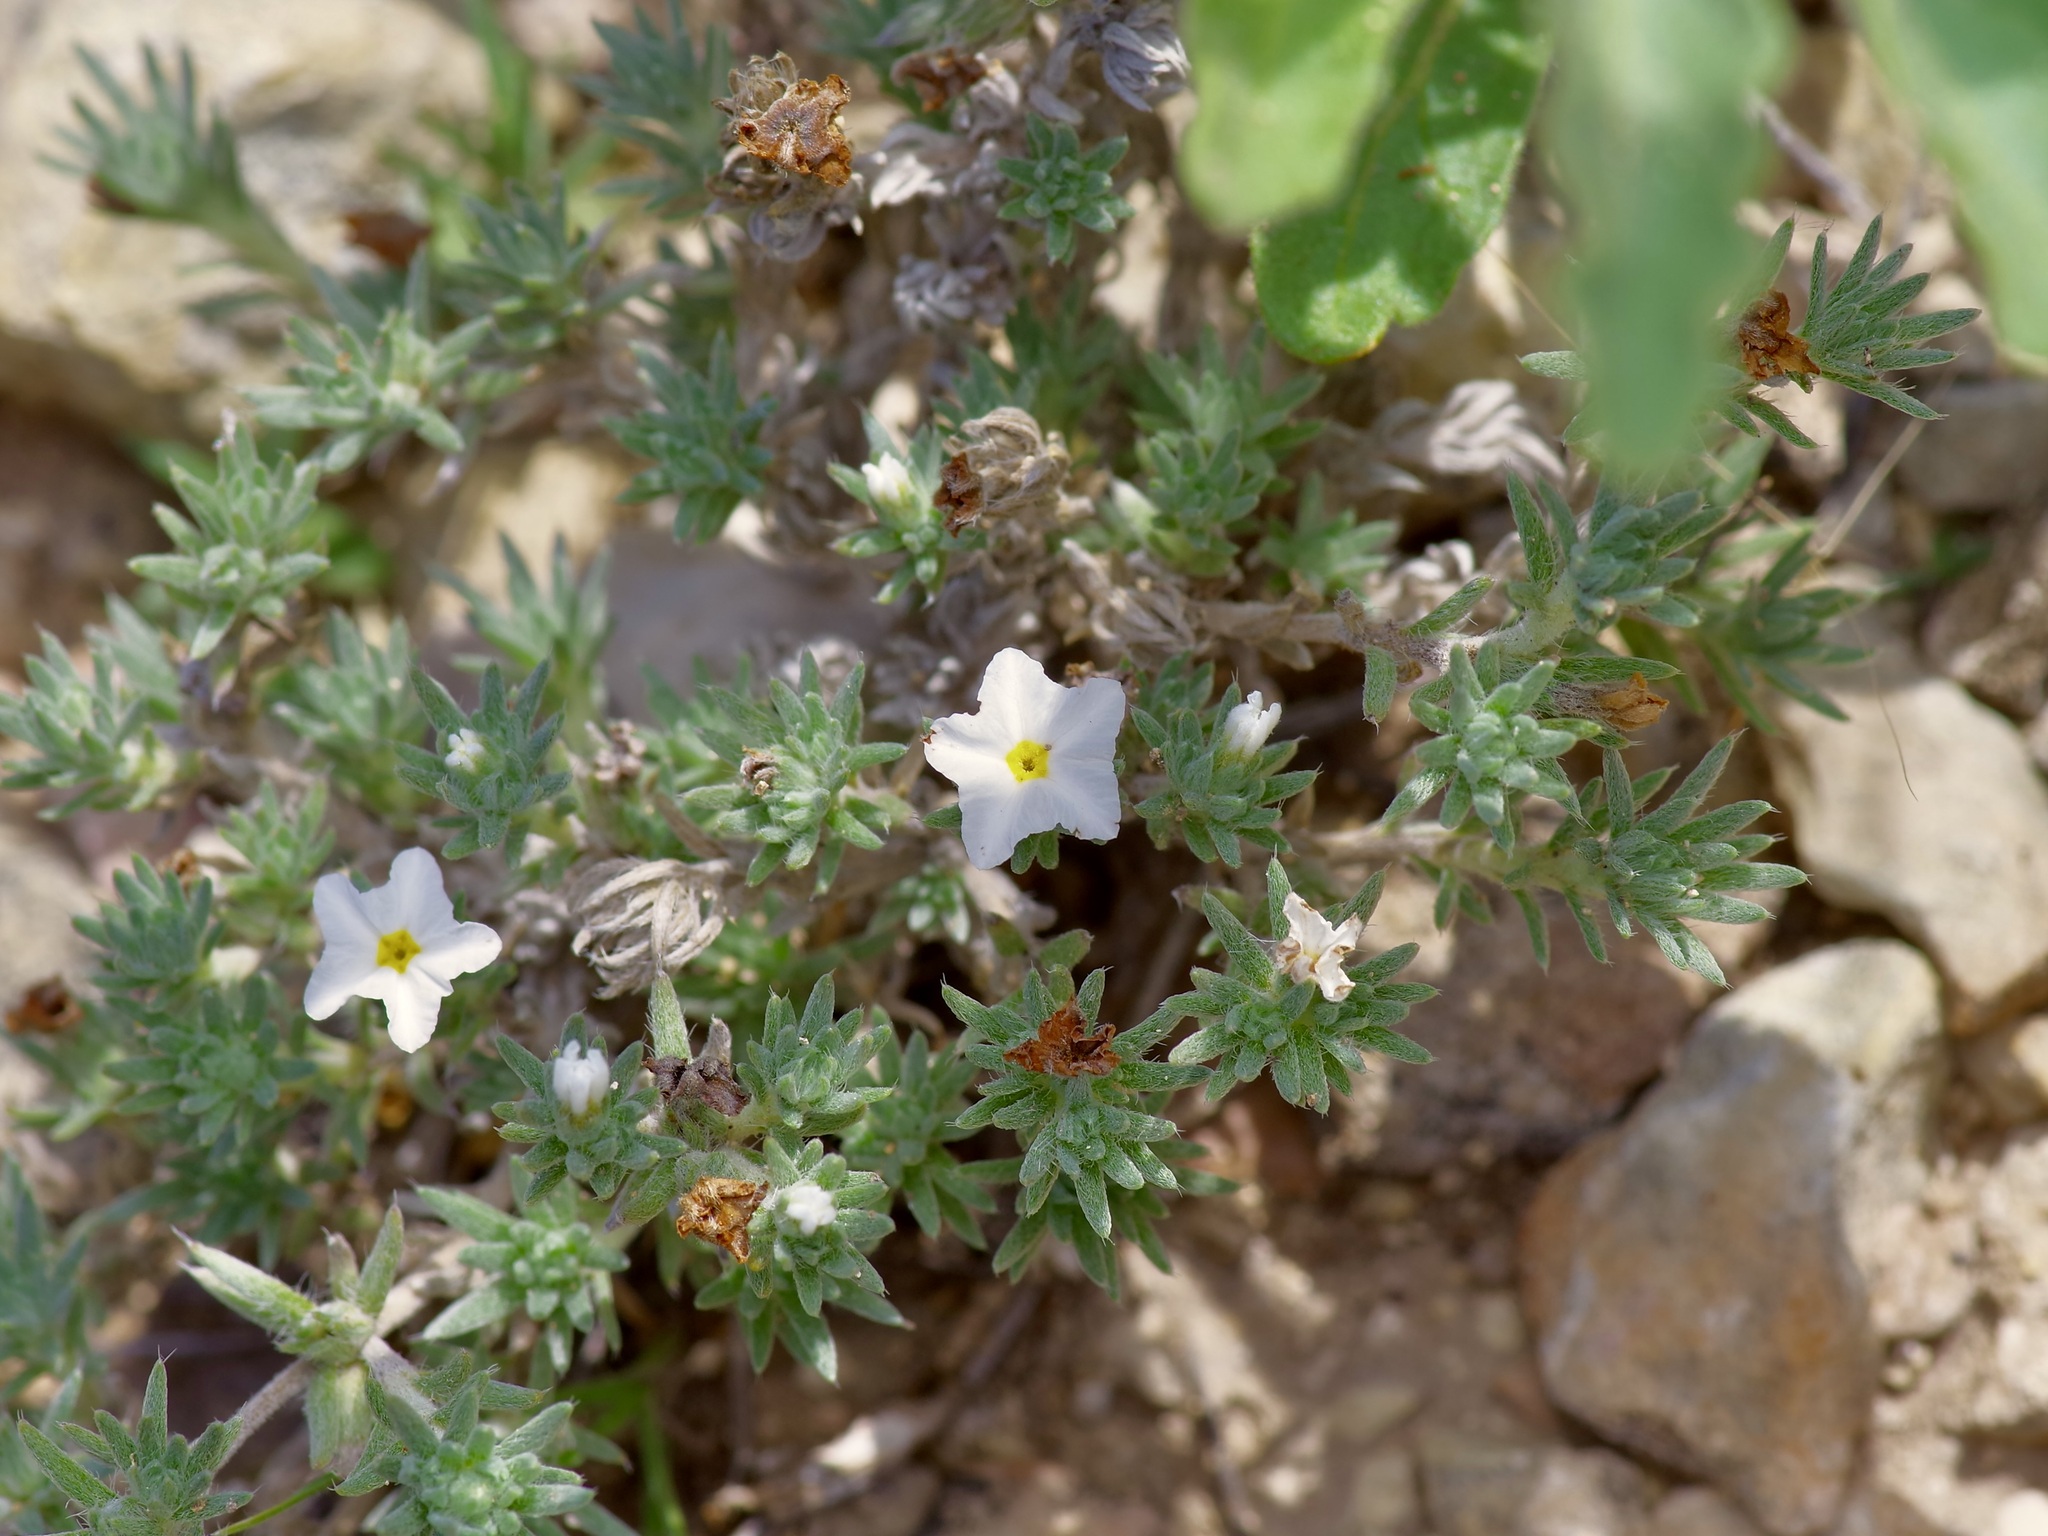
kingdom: Plantae
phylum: Tracheophyta
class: Magnoliopsida
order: Boraginales
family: Heliotropiaceae
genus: Euploca
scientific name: Euploca confertifolia
